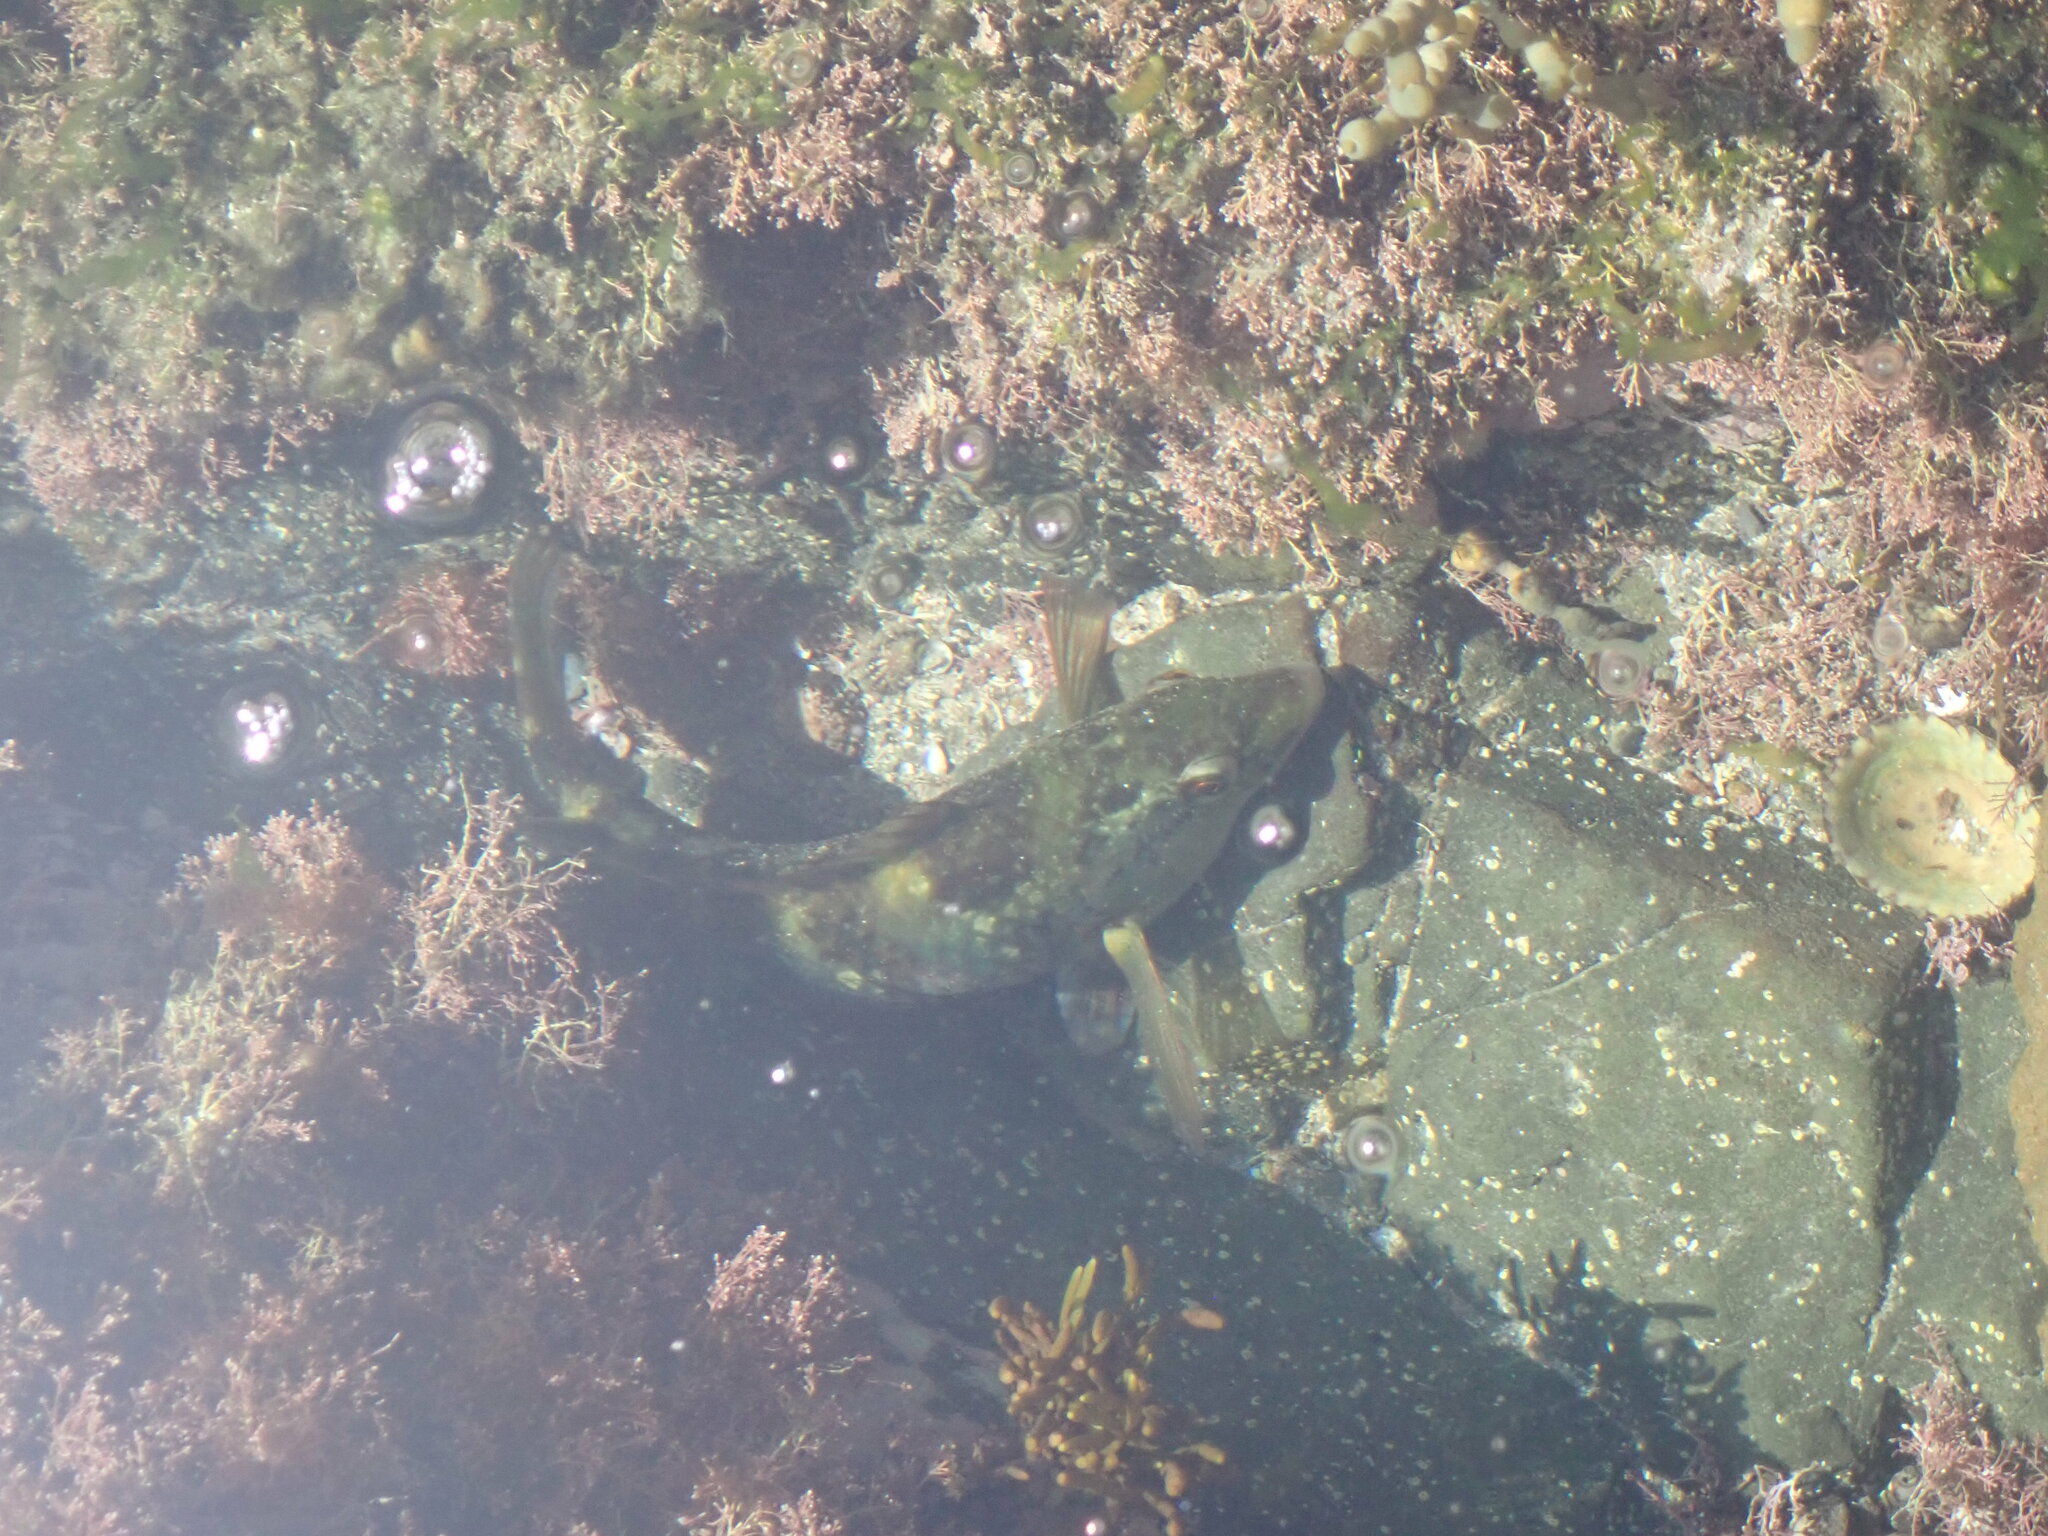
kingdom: Animalia
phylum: Chordata
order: Perciformes
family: Labridae
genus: Notolabrus
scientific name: Notolabrus fucicola
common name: Banded parrotfish
